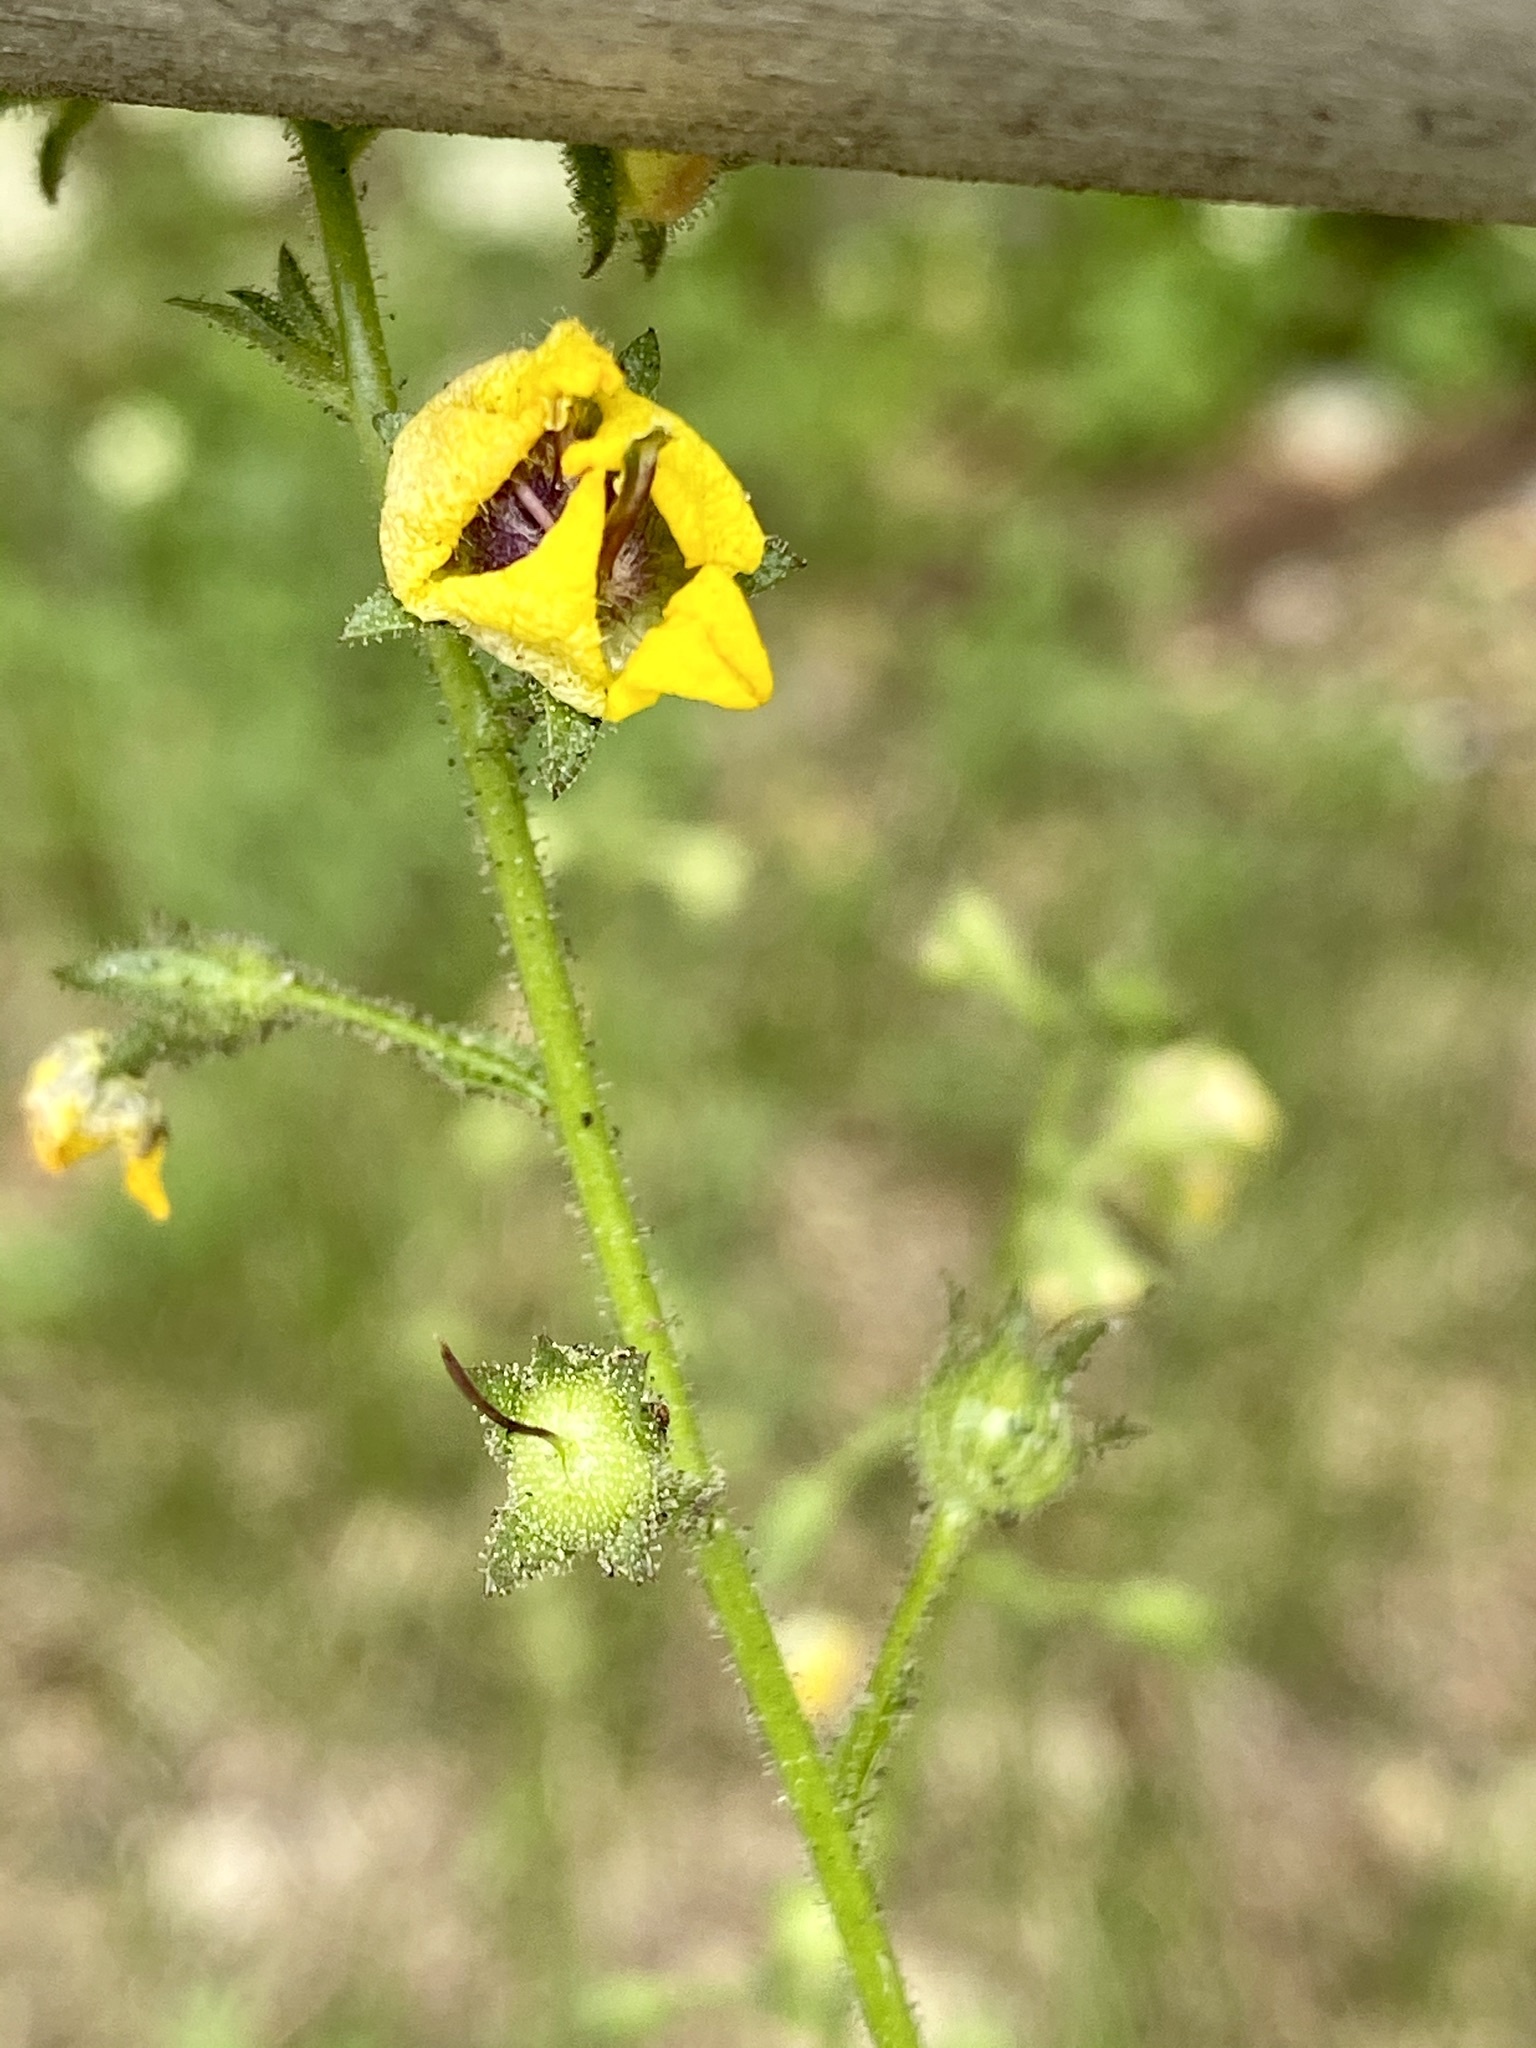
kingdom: Plantae
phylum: Tracheophyta
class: Magnoliopsida
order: Lamiales
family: Scrophulariaceae
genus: Verbascum
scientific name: Verbascum blattaria
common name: Moth mullein
